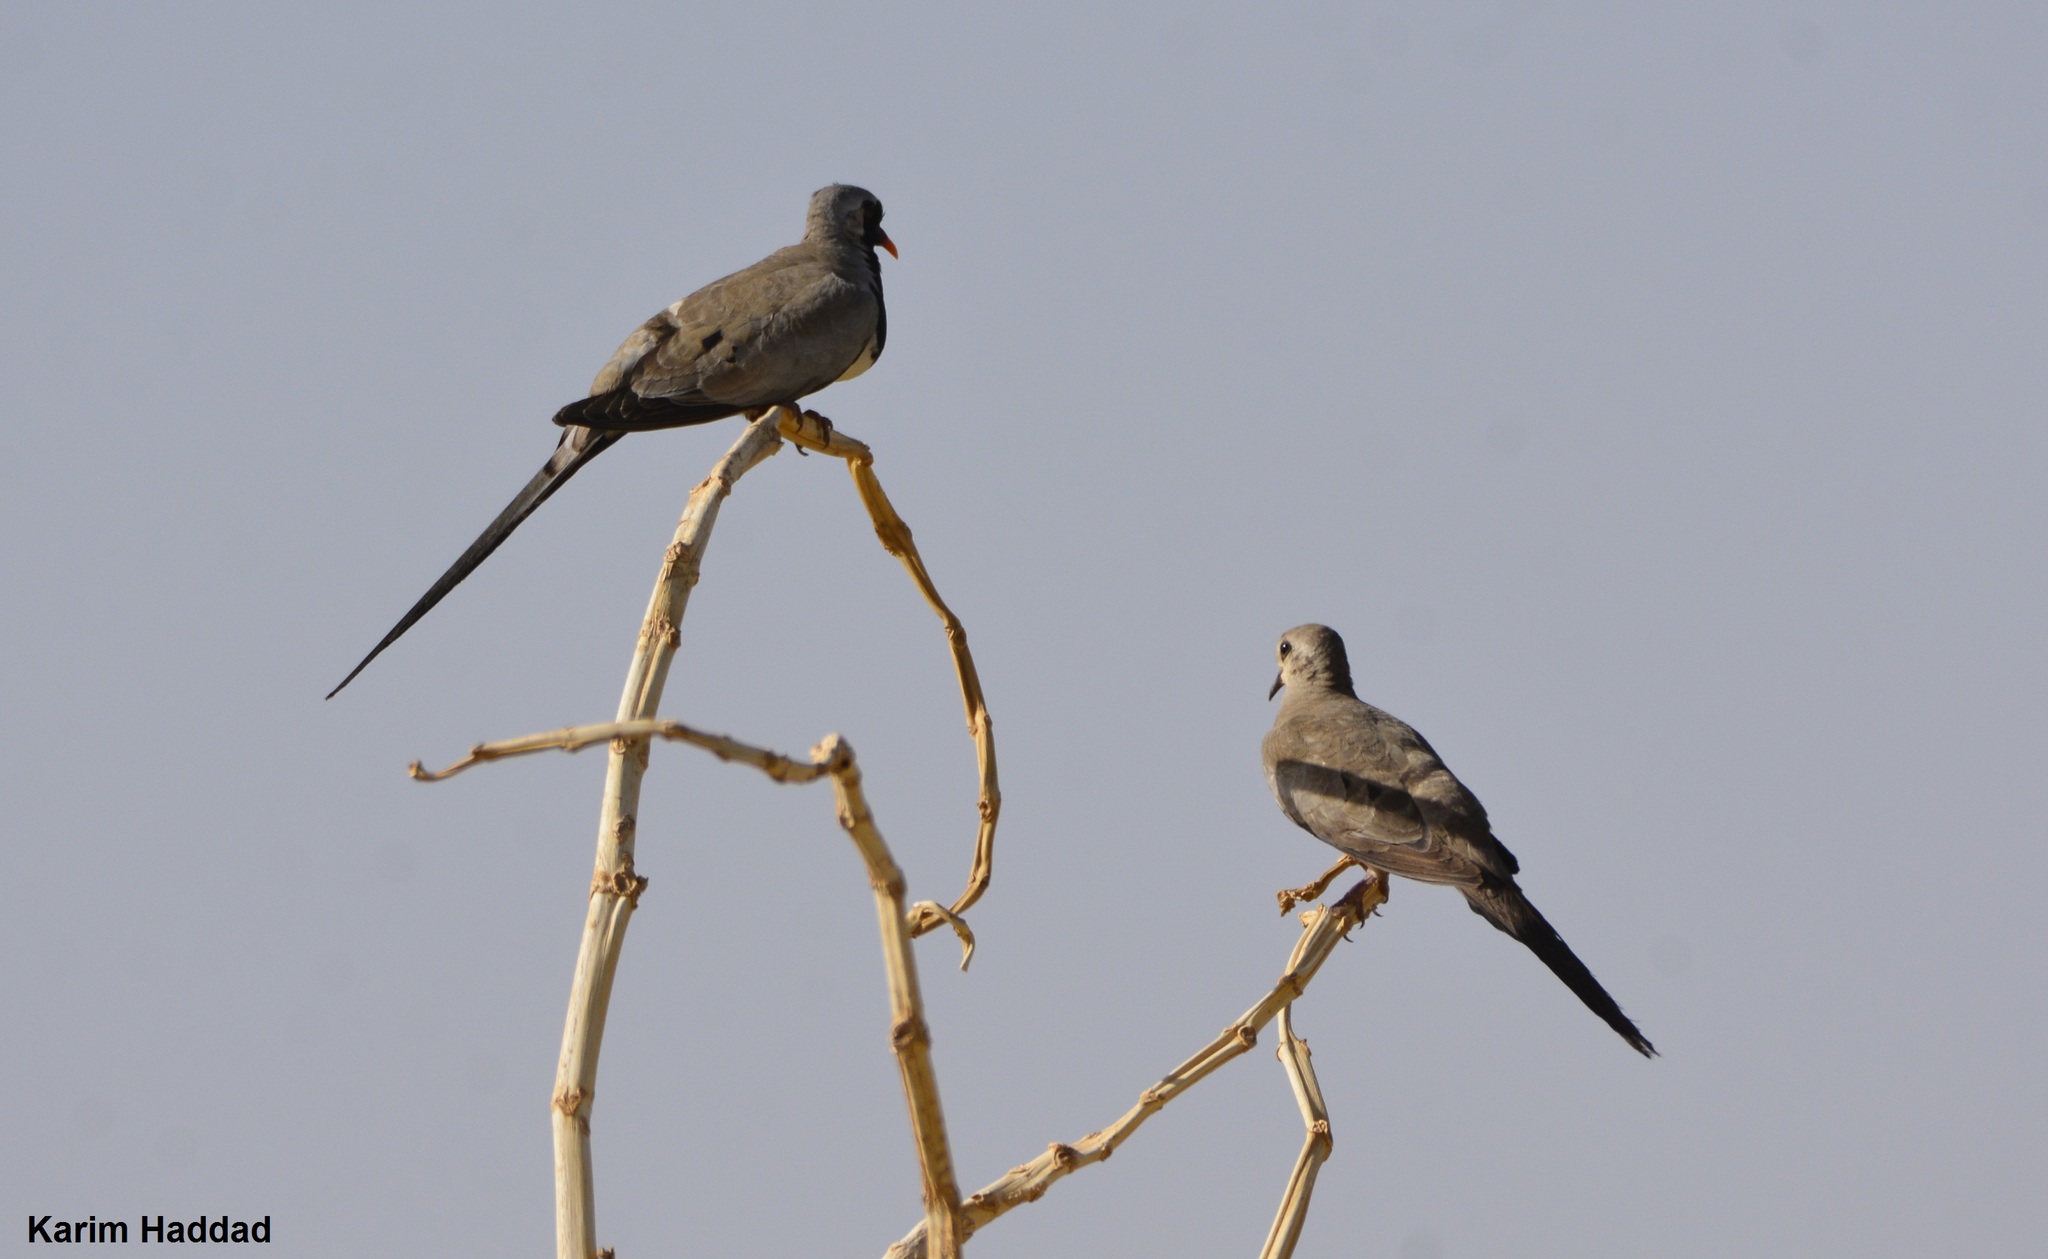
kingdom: Animalia
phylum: Chordata
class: Aves
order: Columbiformes
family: Columbidae
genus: Oena
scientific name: Oena capensis
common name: Namaqua dove
